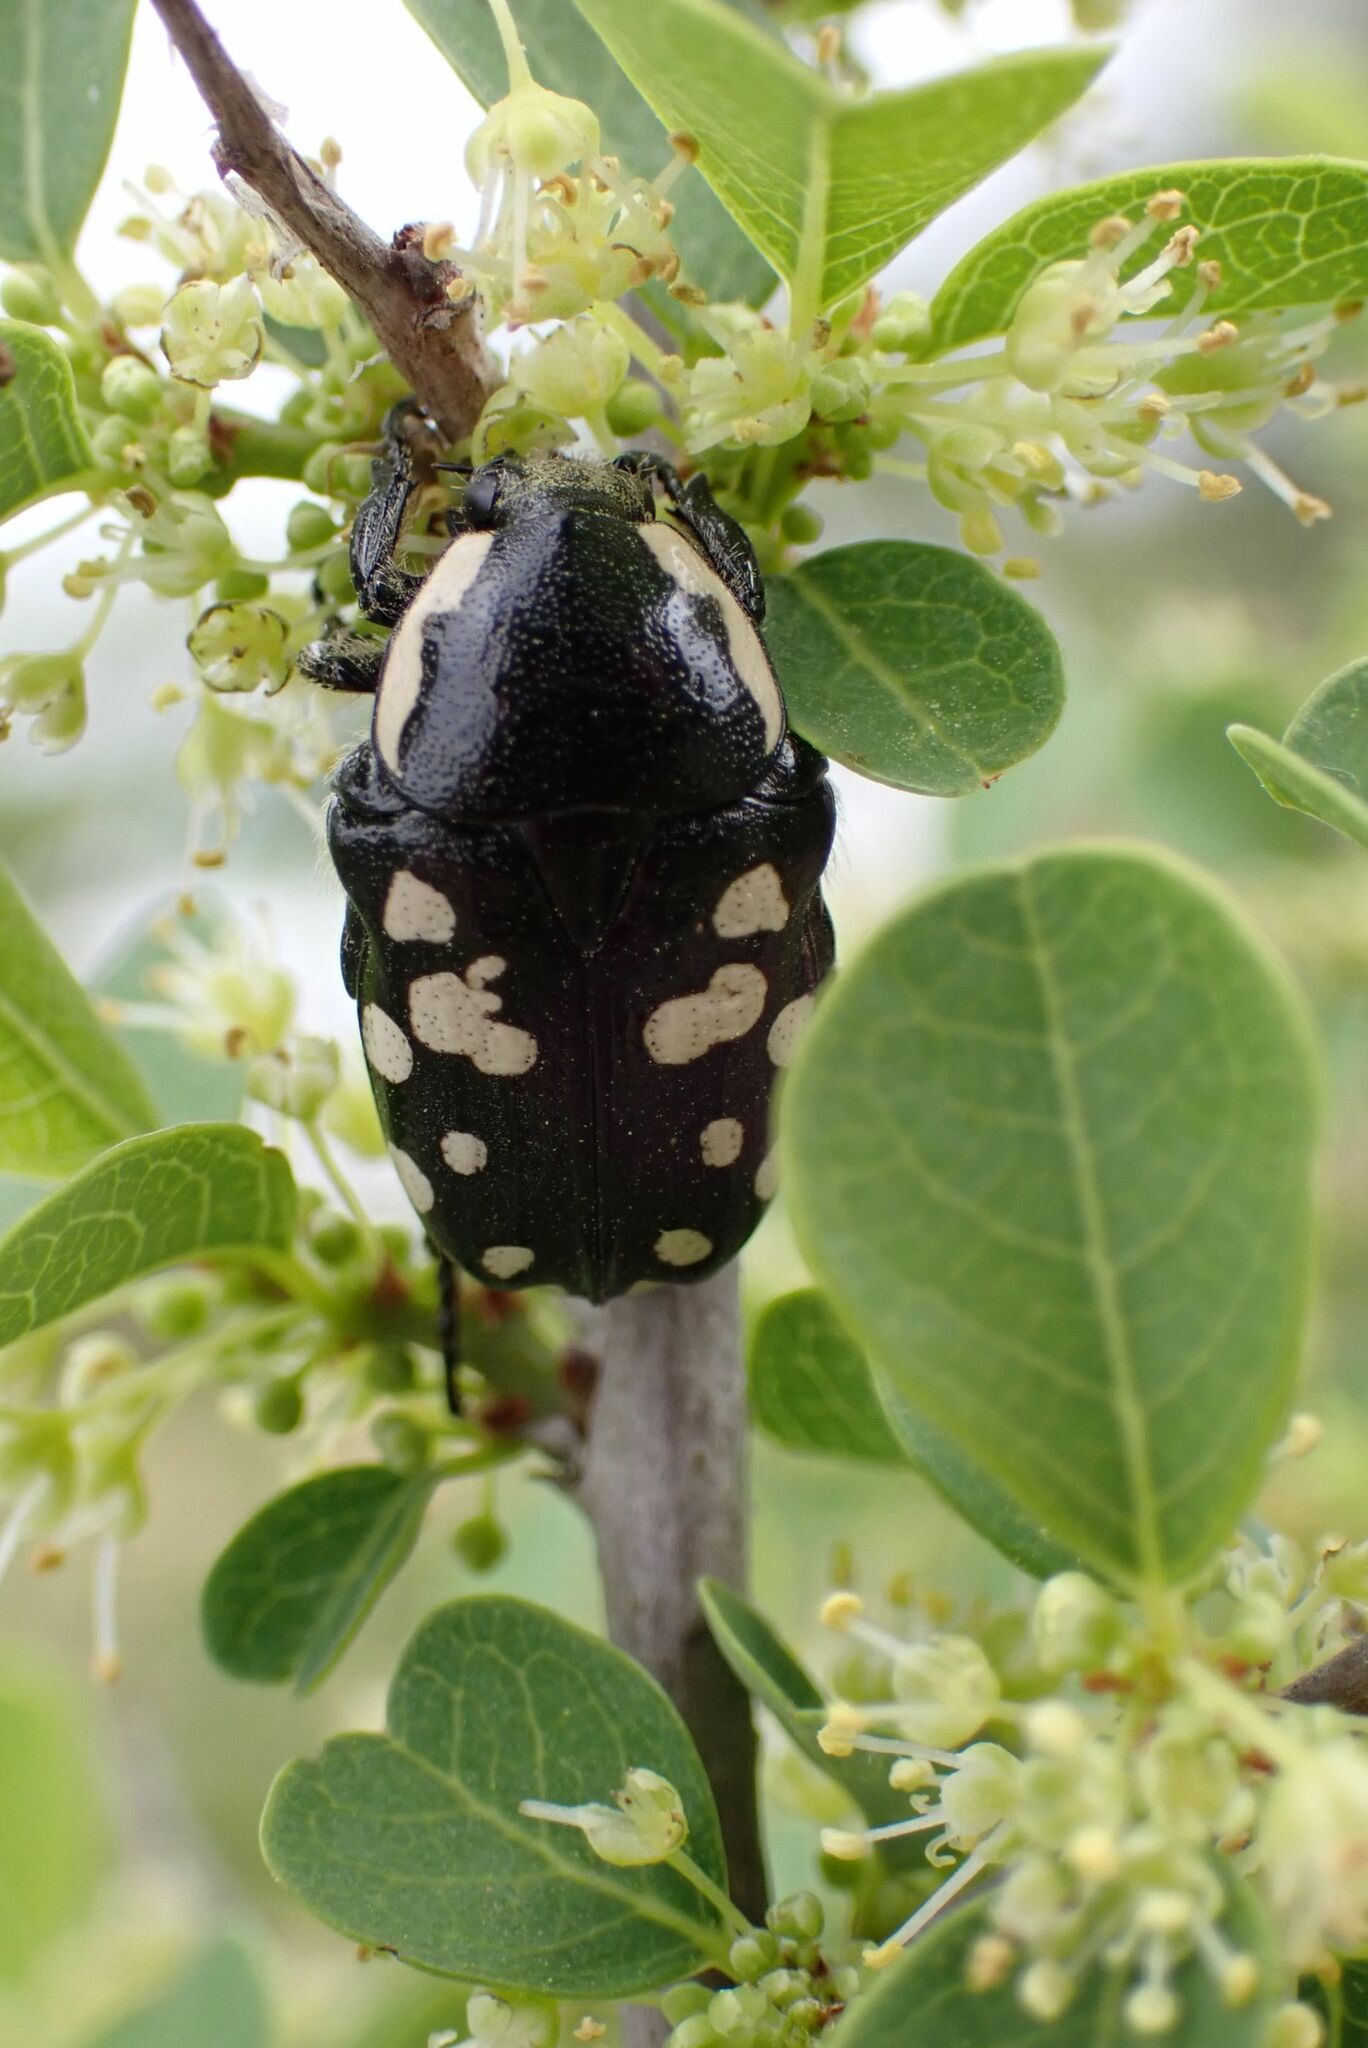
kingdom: Animalia
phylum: Arthropoda
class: Insecta
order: Coleoptera
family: Scarabaeidae
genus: Phoxomela
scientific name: Phoxomela umbrosa
